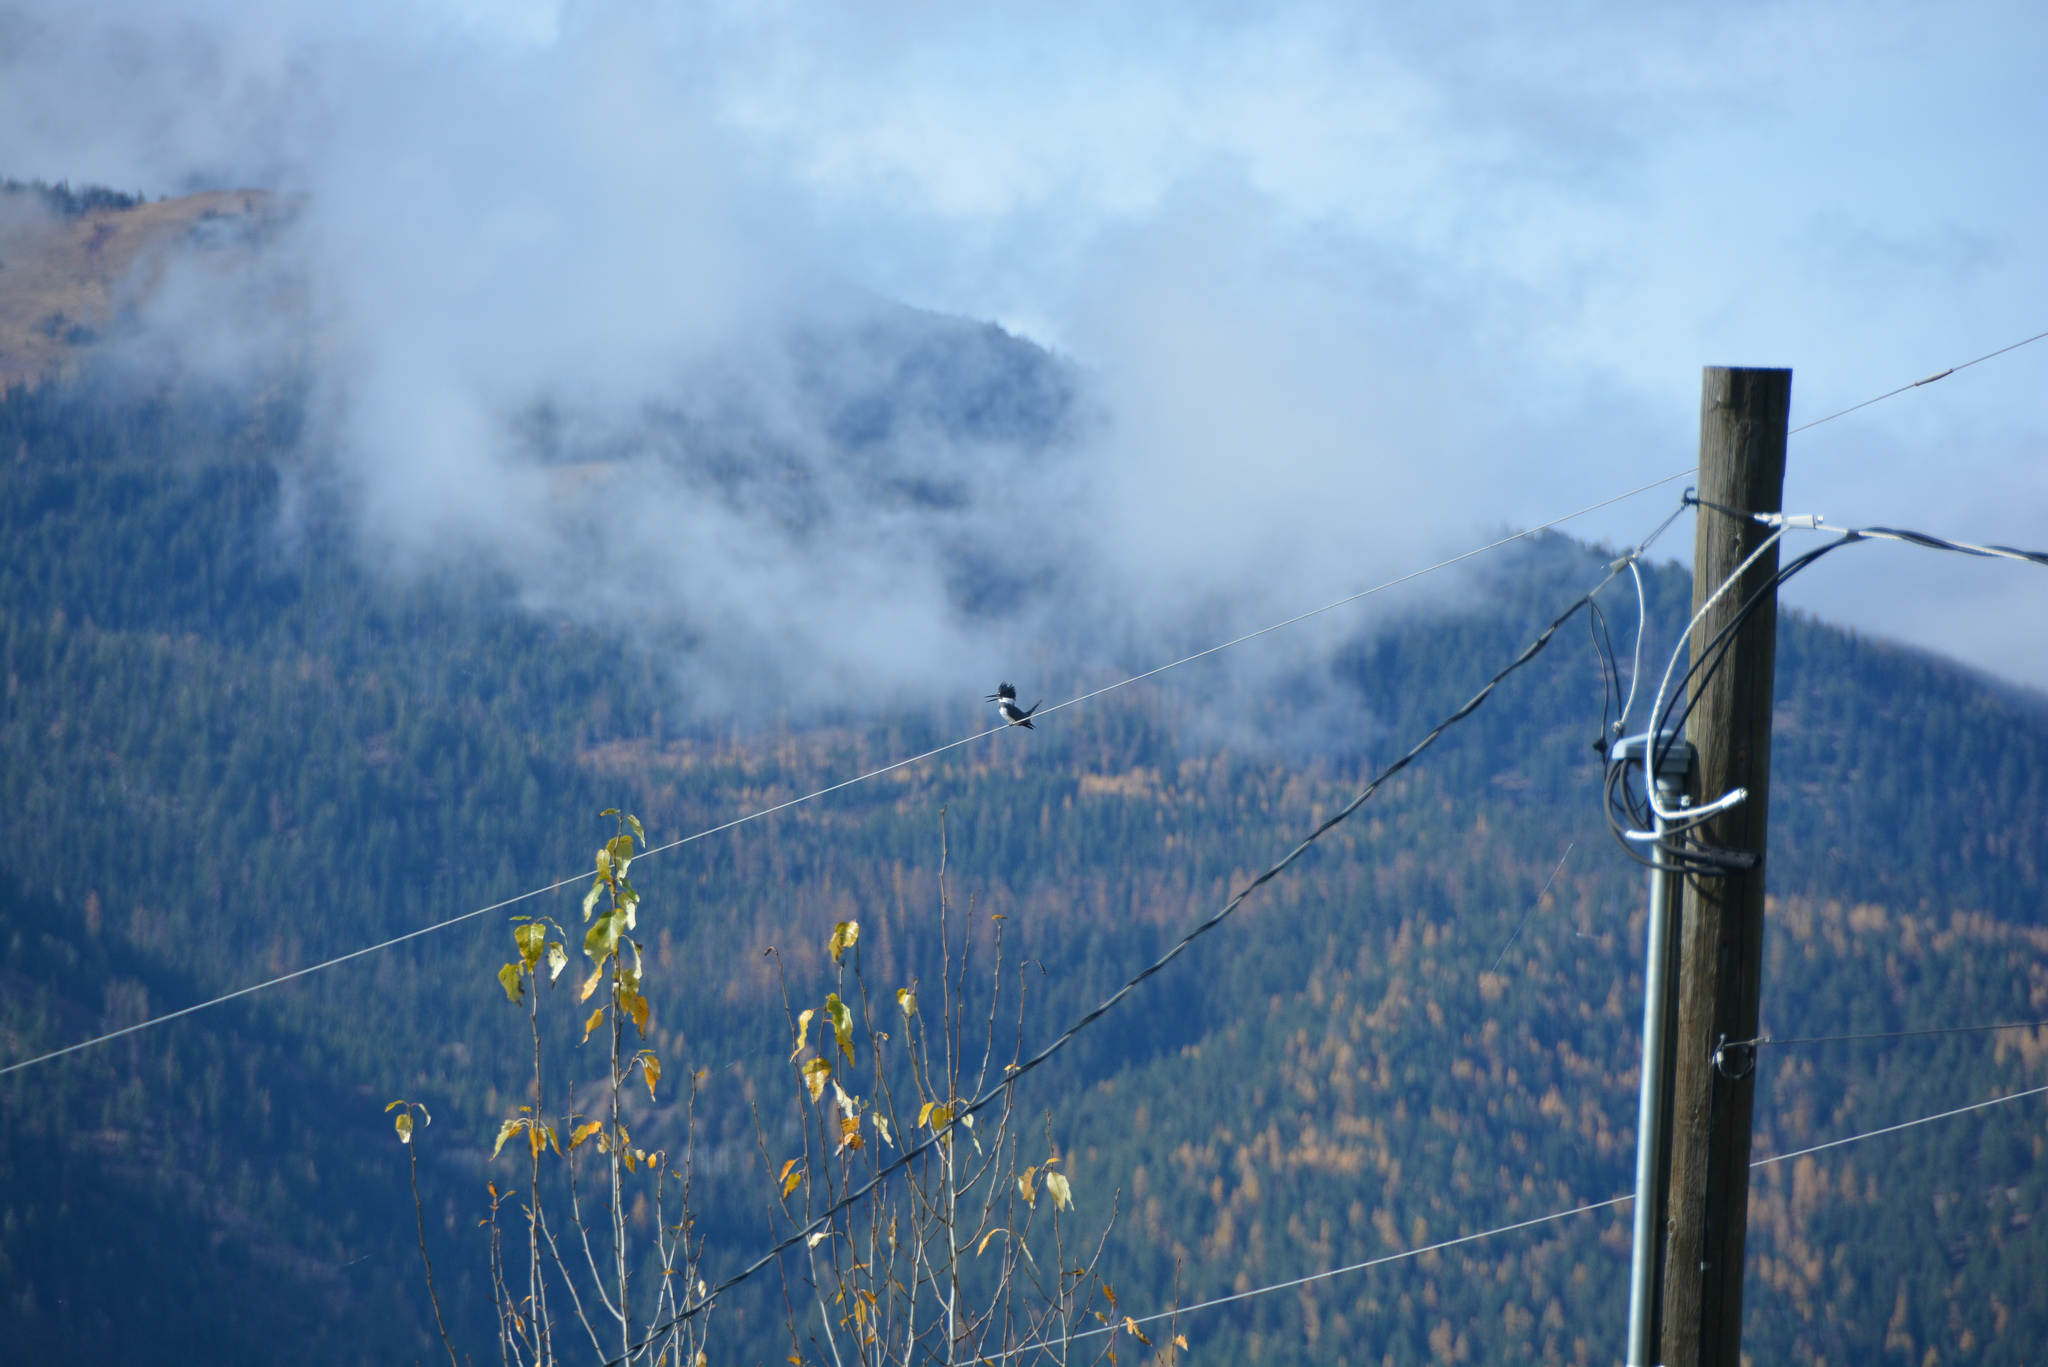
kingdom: Animalia
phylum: Chordata
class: Aves
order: Coraciiformes
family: Alcedinidae
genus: Megaceryle
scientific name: Megaceryle alcyon
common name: Belted kingfisher
